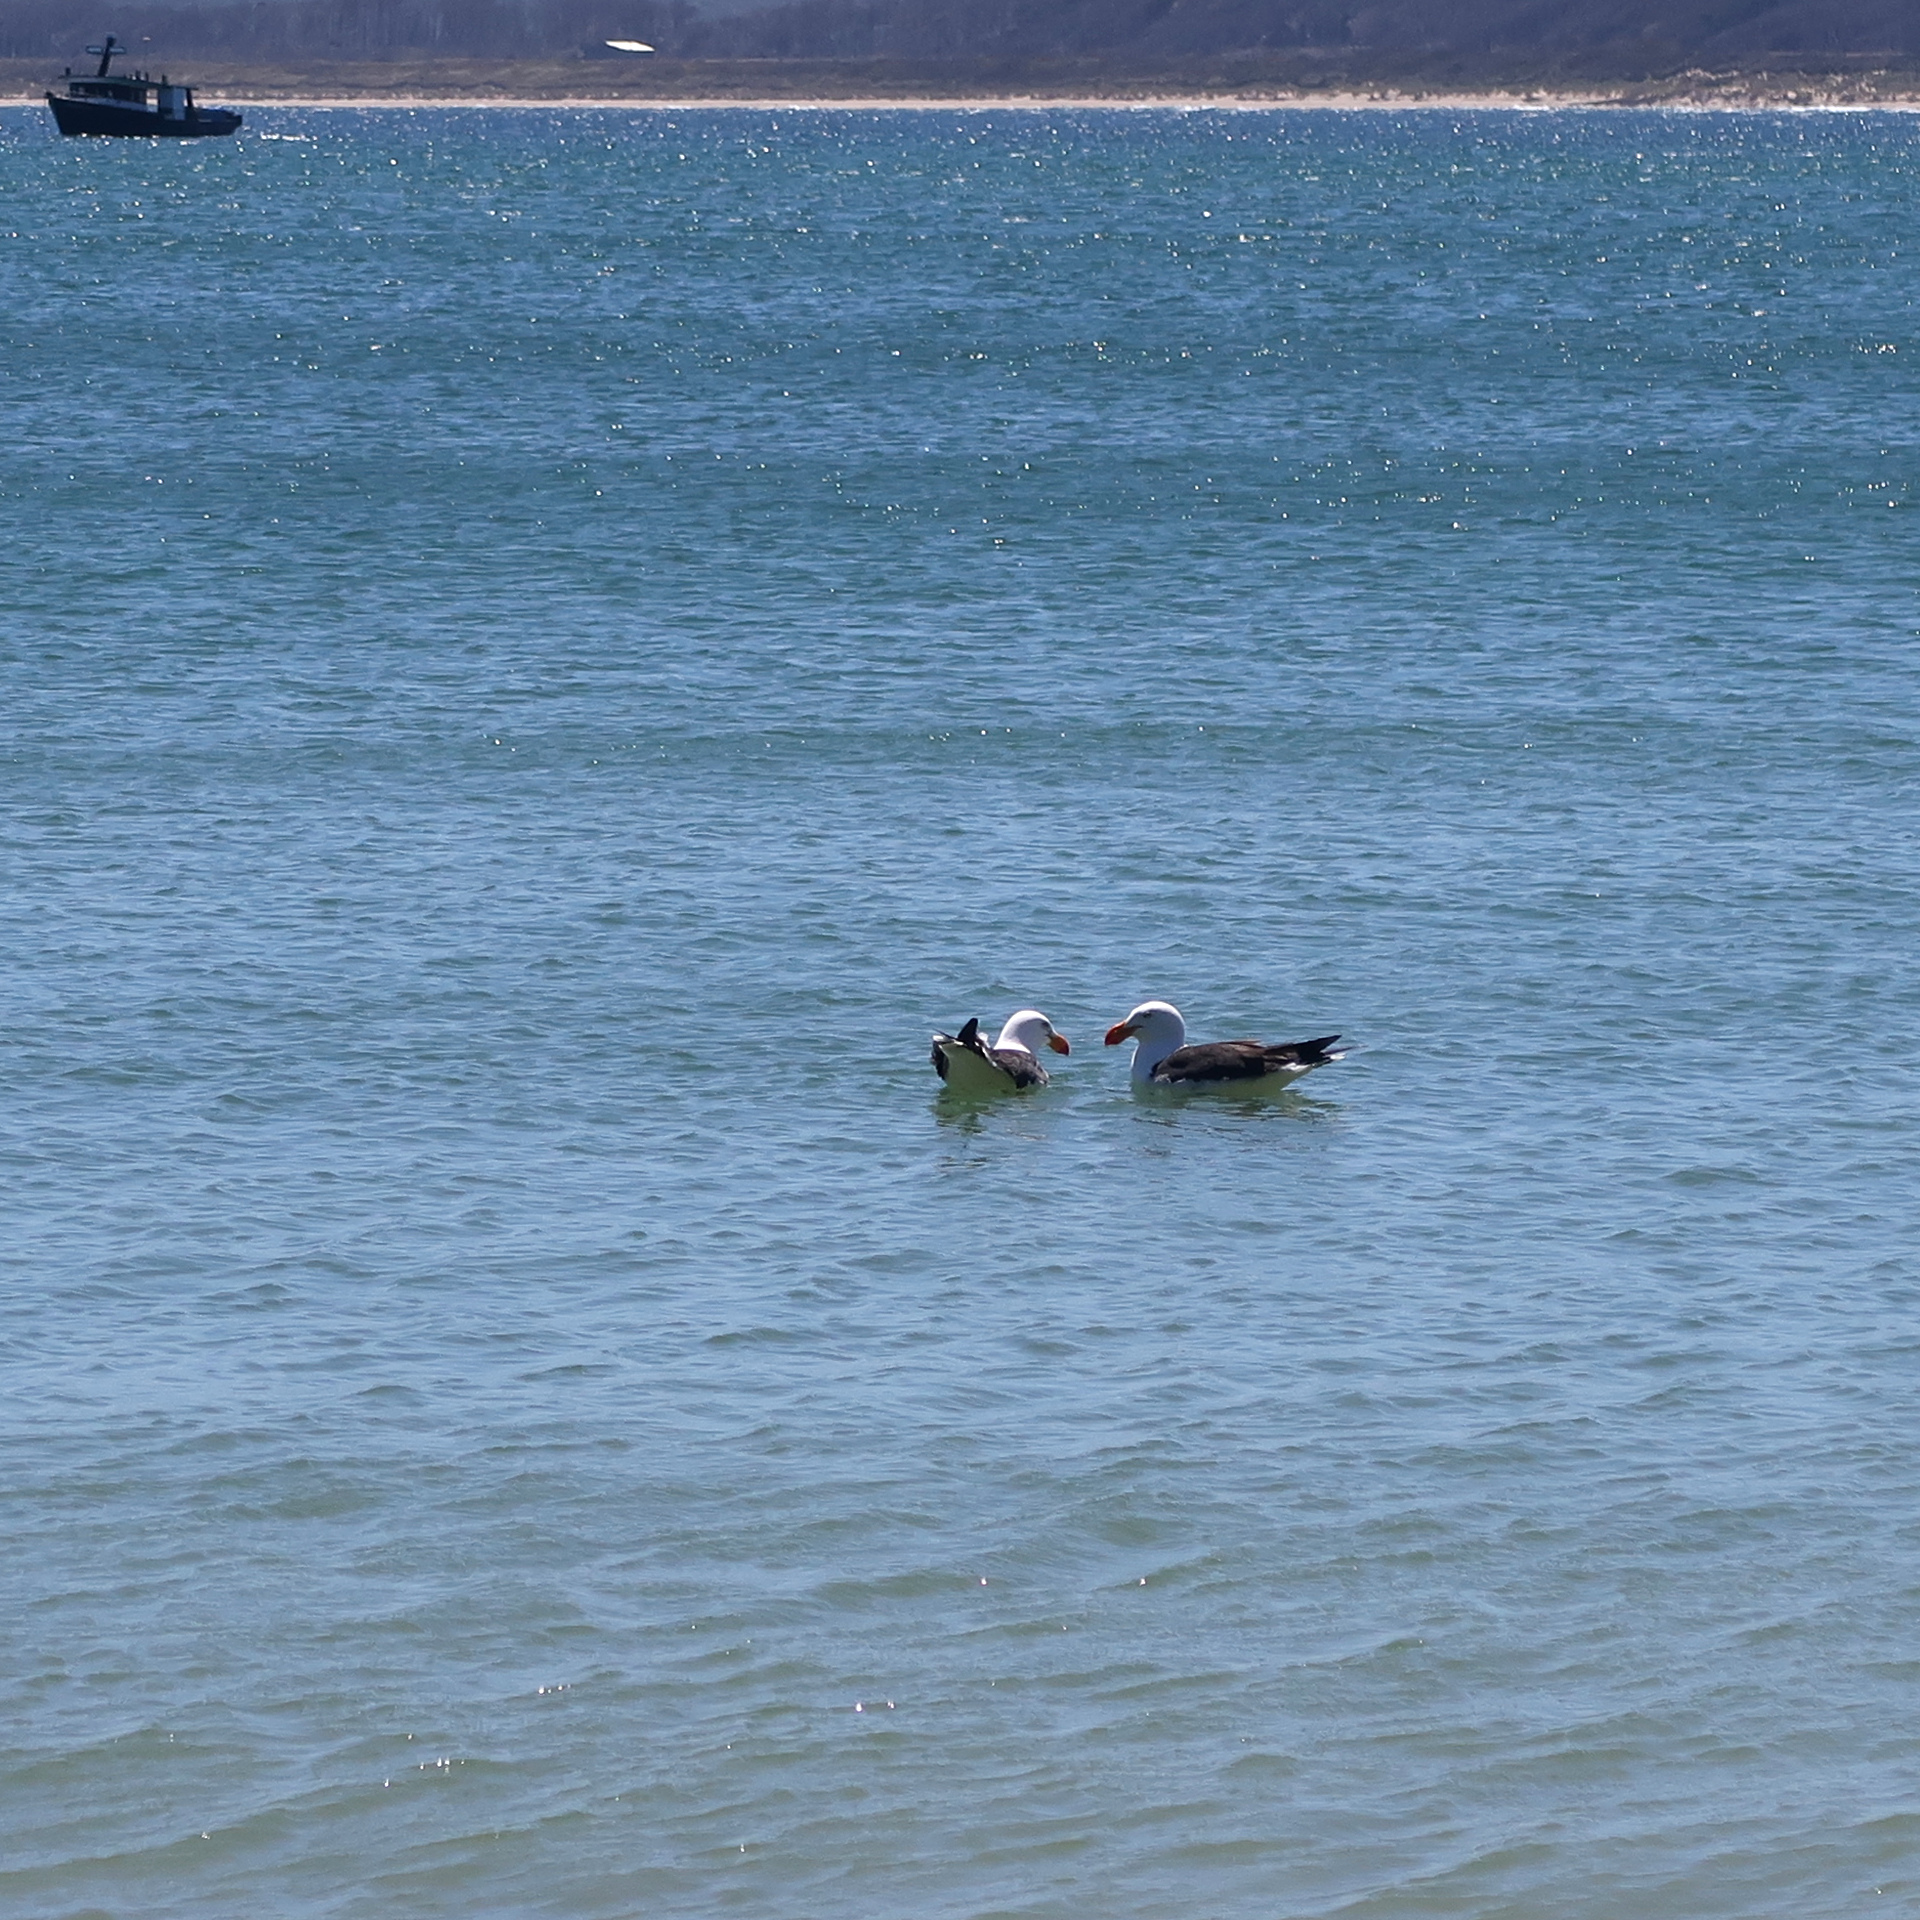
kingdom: Animalia
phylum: Chordata
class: Aves
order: Charadriiformes
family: Laridae
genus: Larus
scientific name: Larus pacificus
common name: Pacific gull
